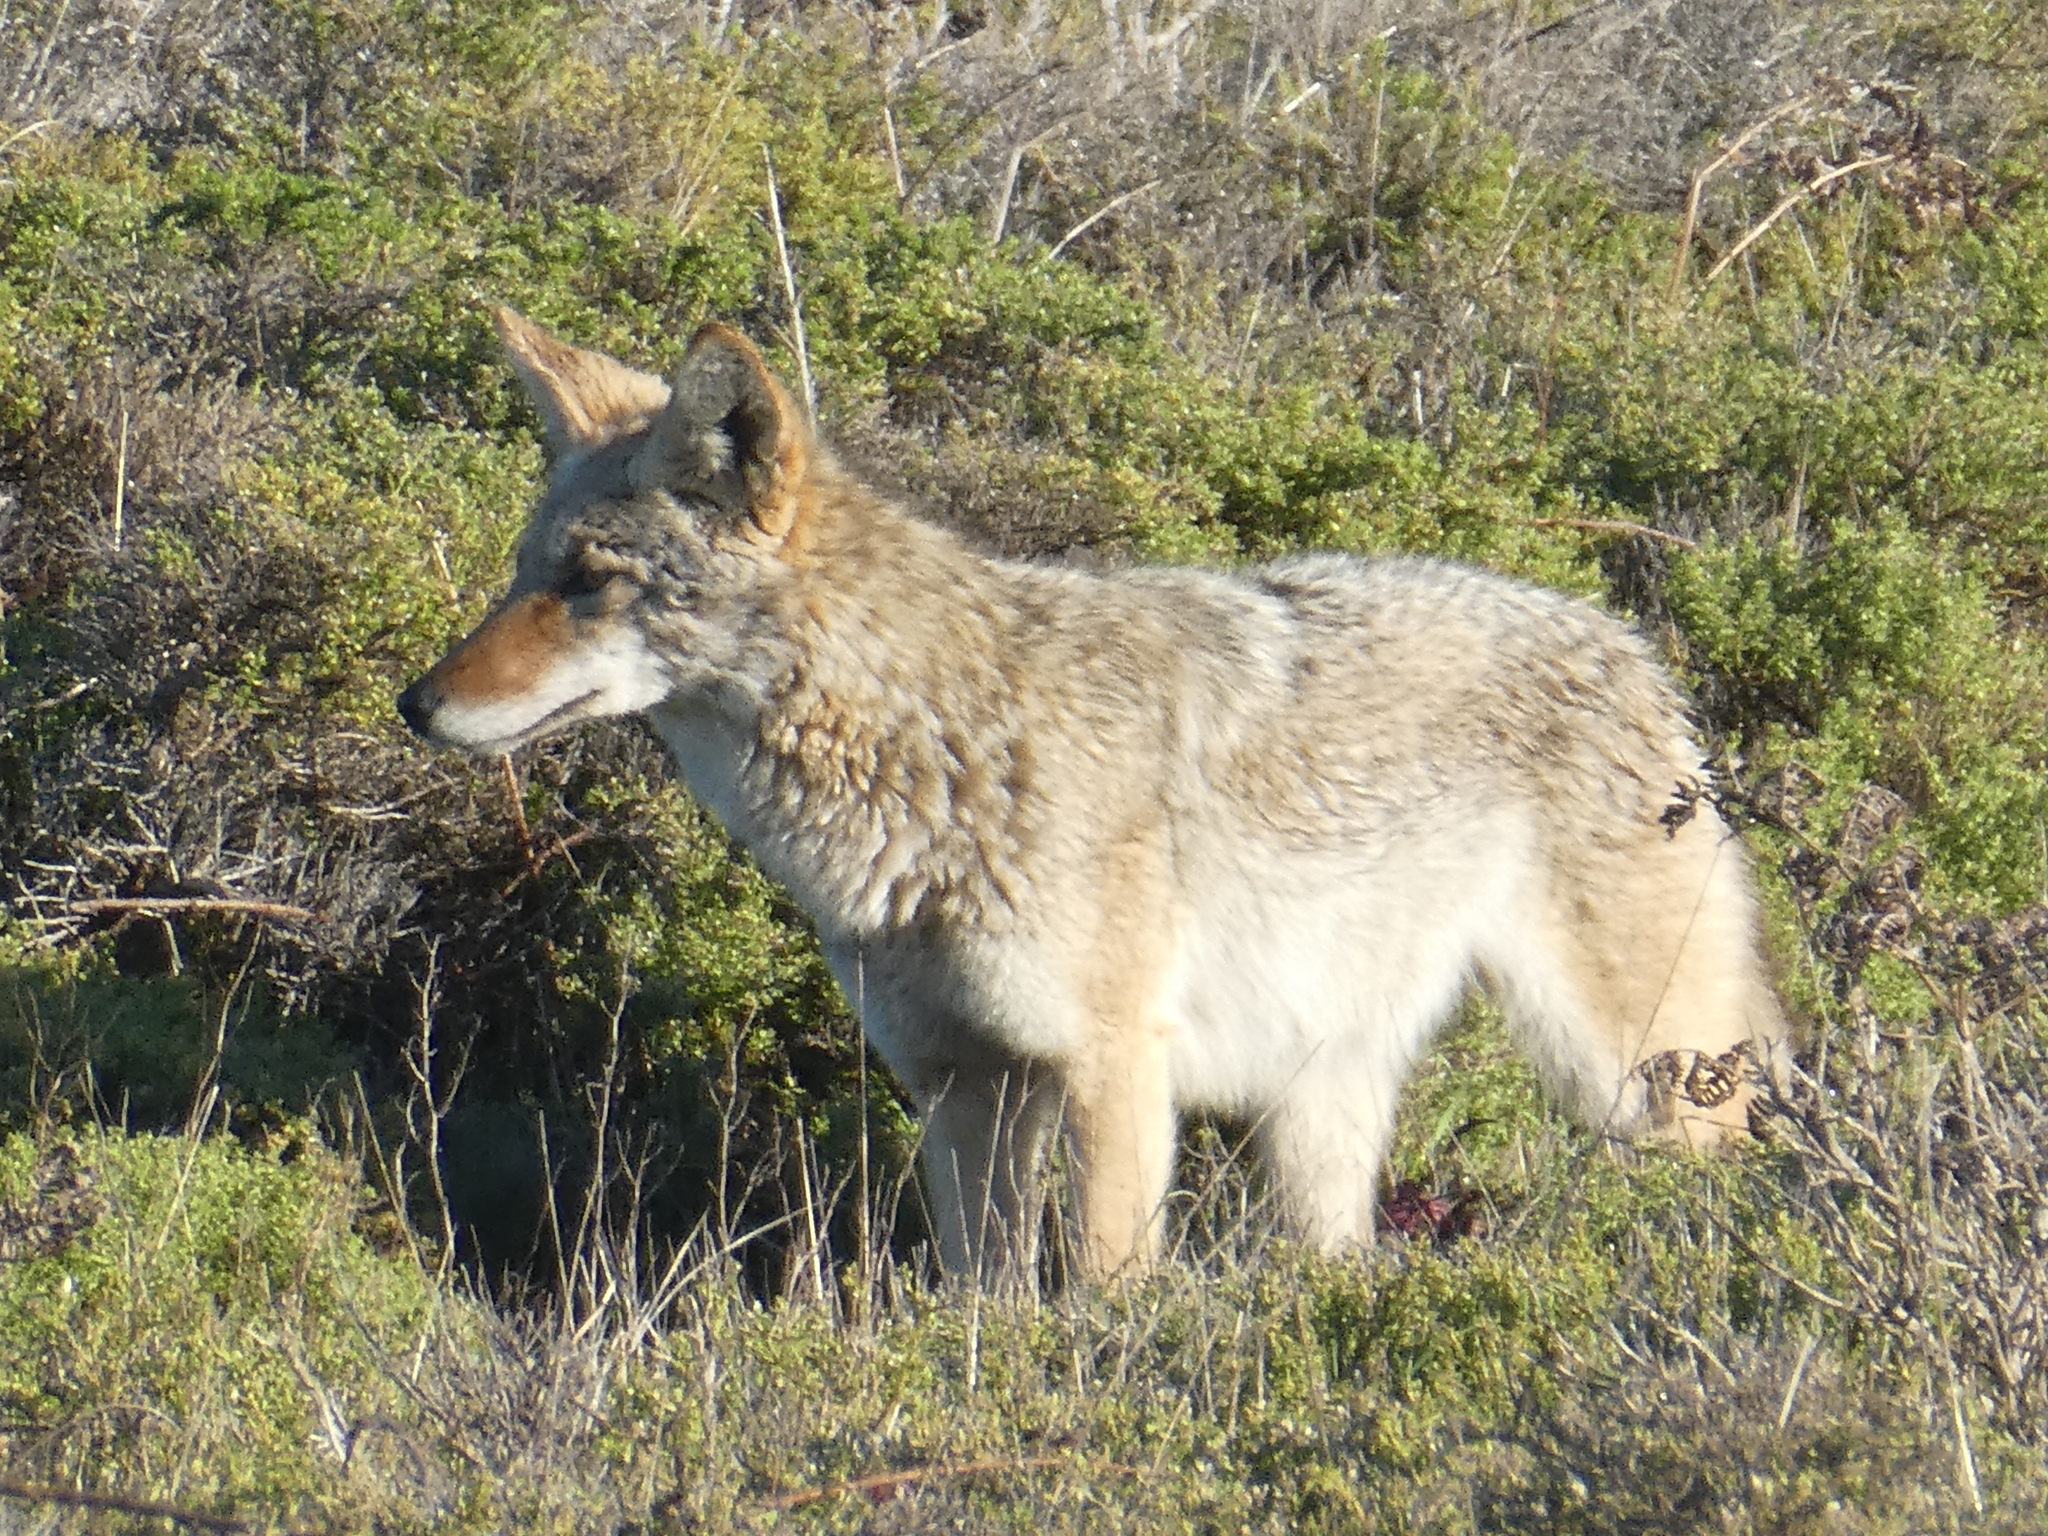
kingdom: Animalia
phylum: Chordata
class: Mammalia
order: Carnivora
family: Canidae
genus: Canis
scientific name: Canis latrans
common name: Coyote
